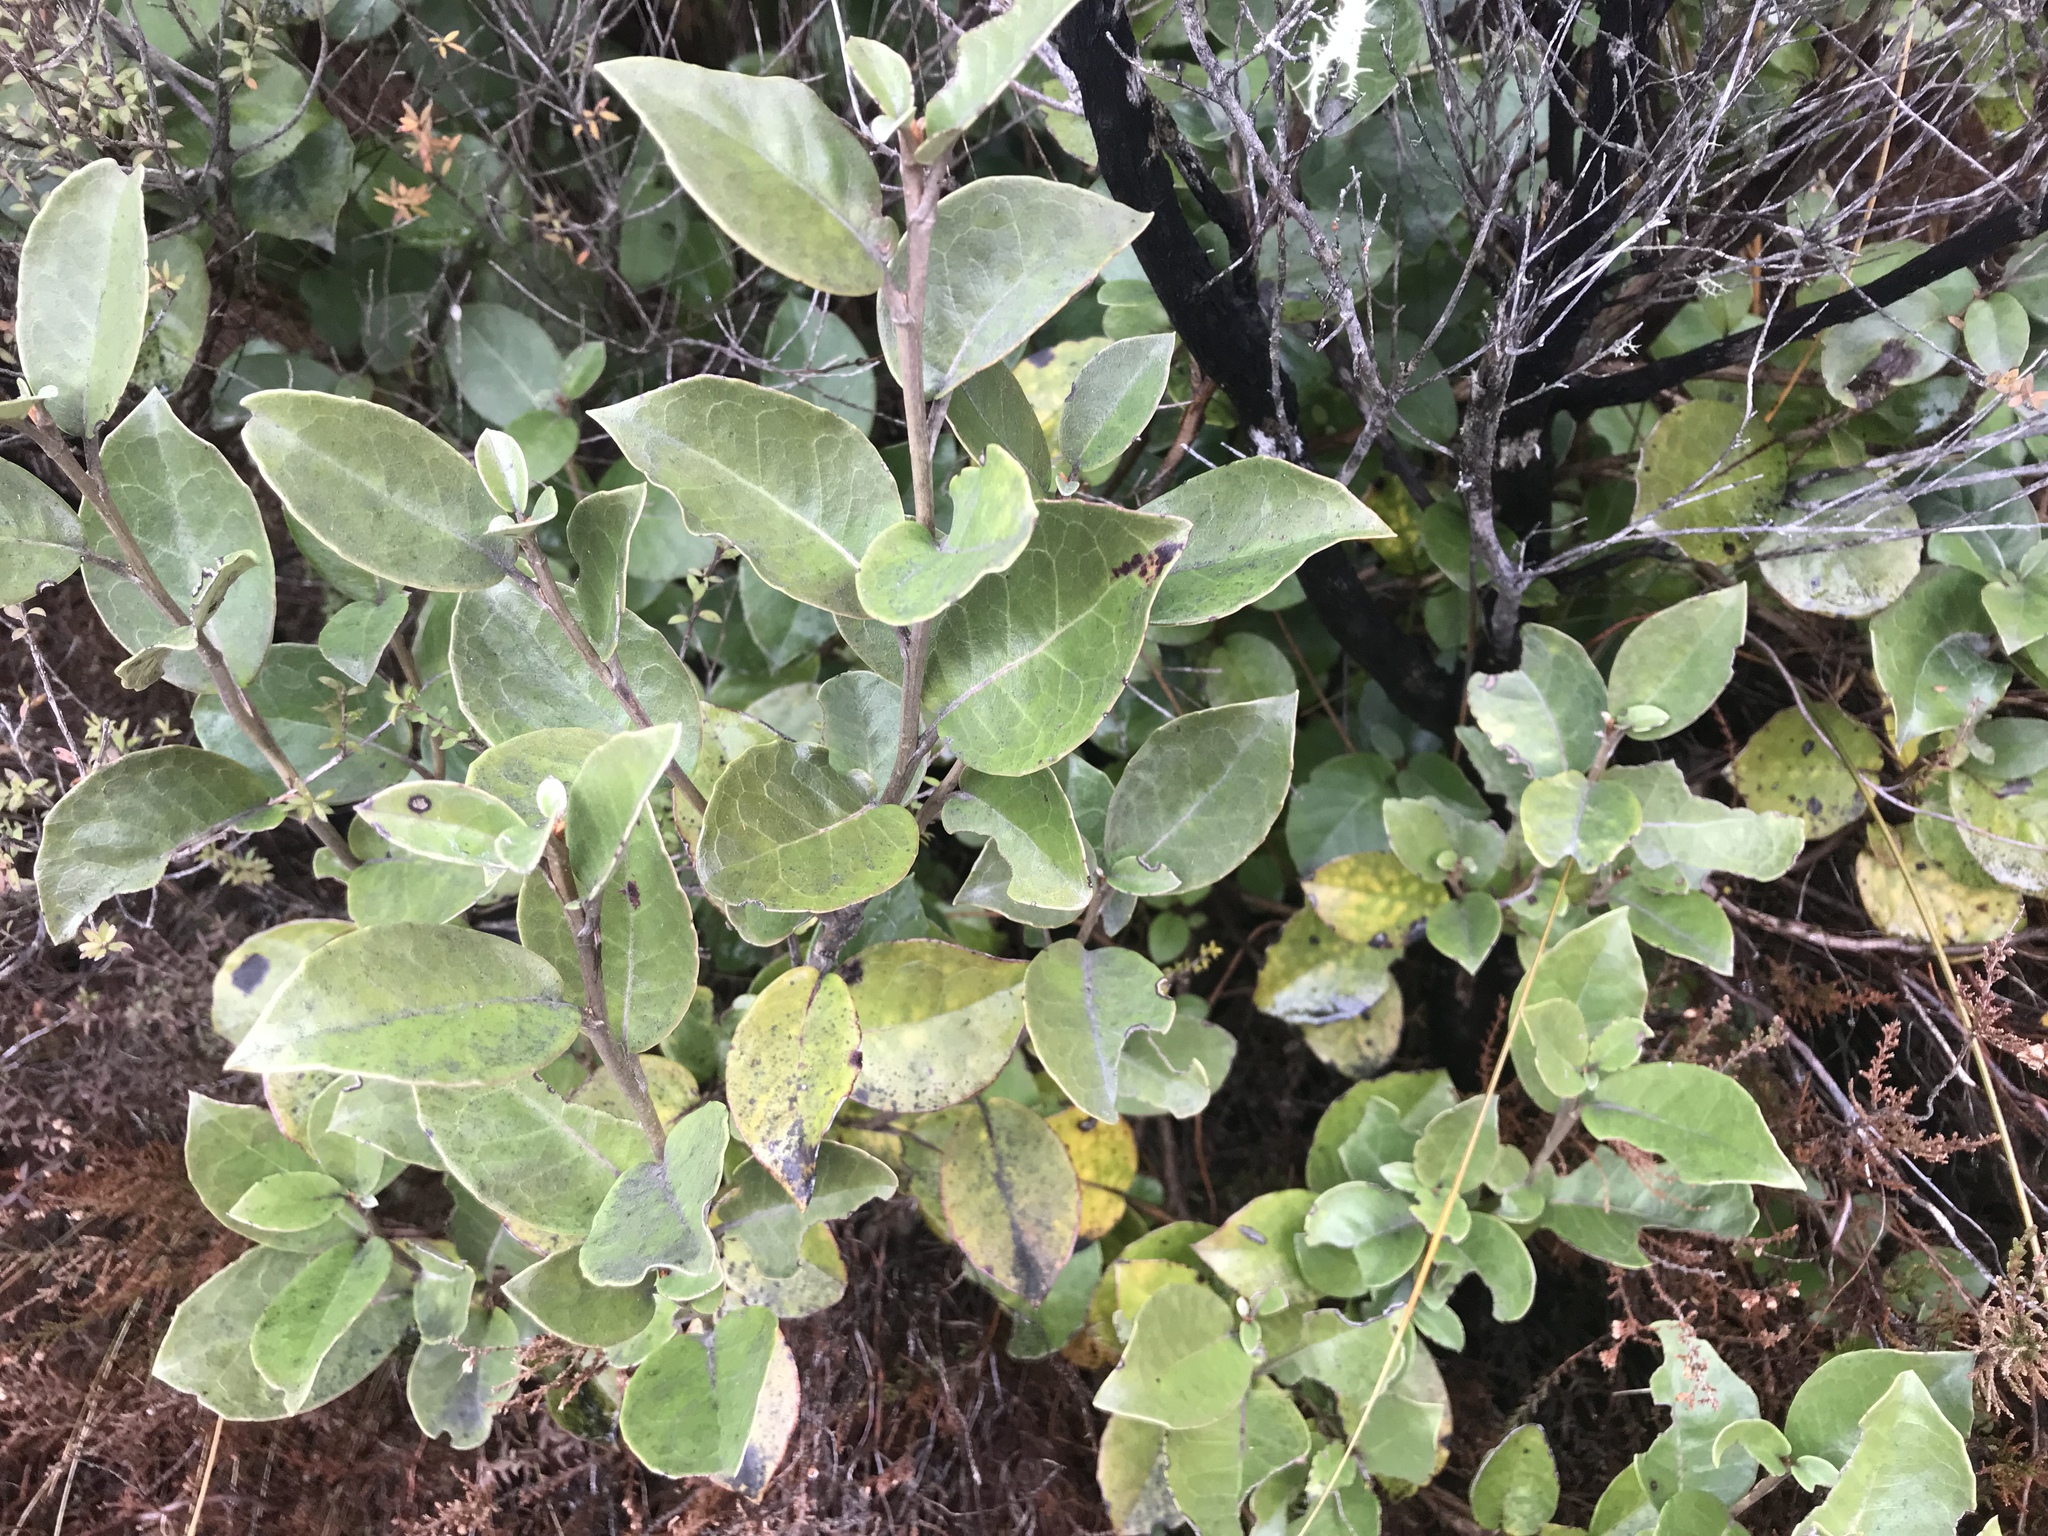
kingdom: Plantae
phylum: Tracheophyta
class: Magnoliopsida
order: Asterales
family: Asteraceae
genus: Olearia
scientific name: Olearia arborescens
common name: Glossy tree daisy
